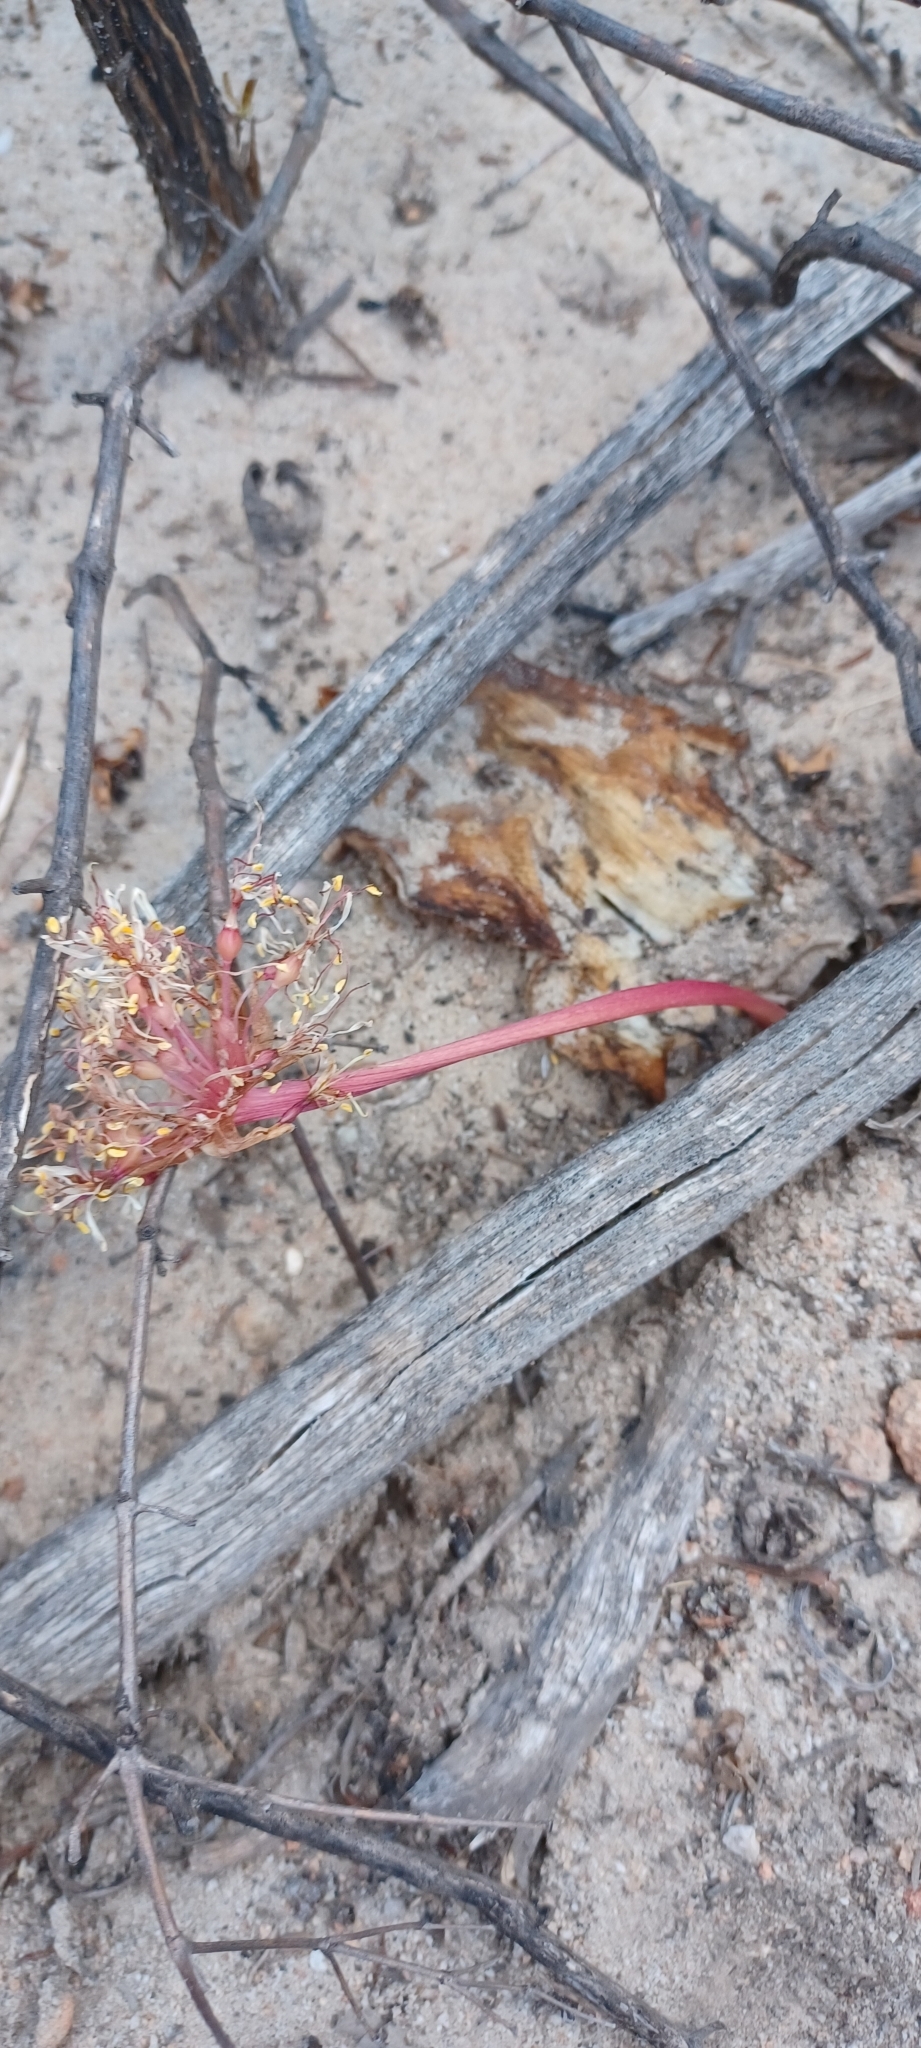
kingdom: Plantae
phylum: Tracheophyta
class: Liliopsida
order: Asparagales
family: Amaryllidaceae
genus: Haemanthus
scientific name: Haemanthus sanguineus
